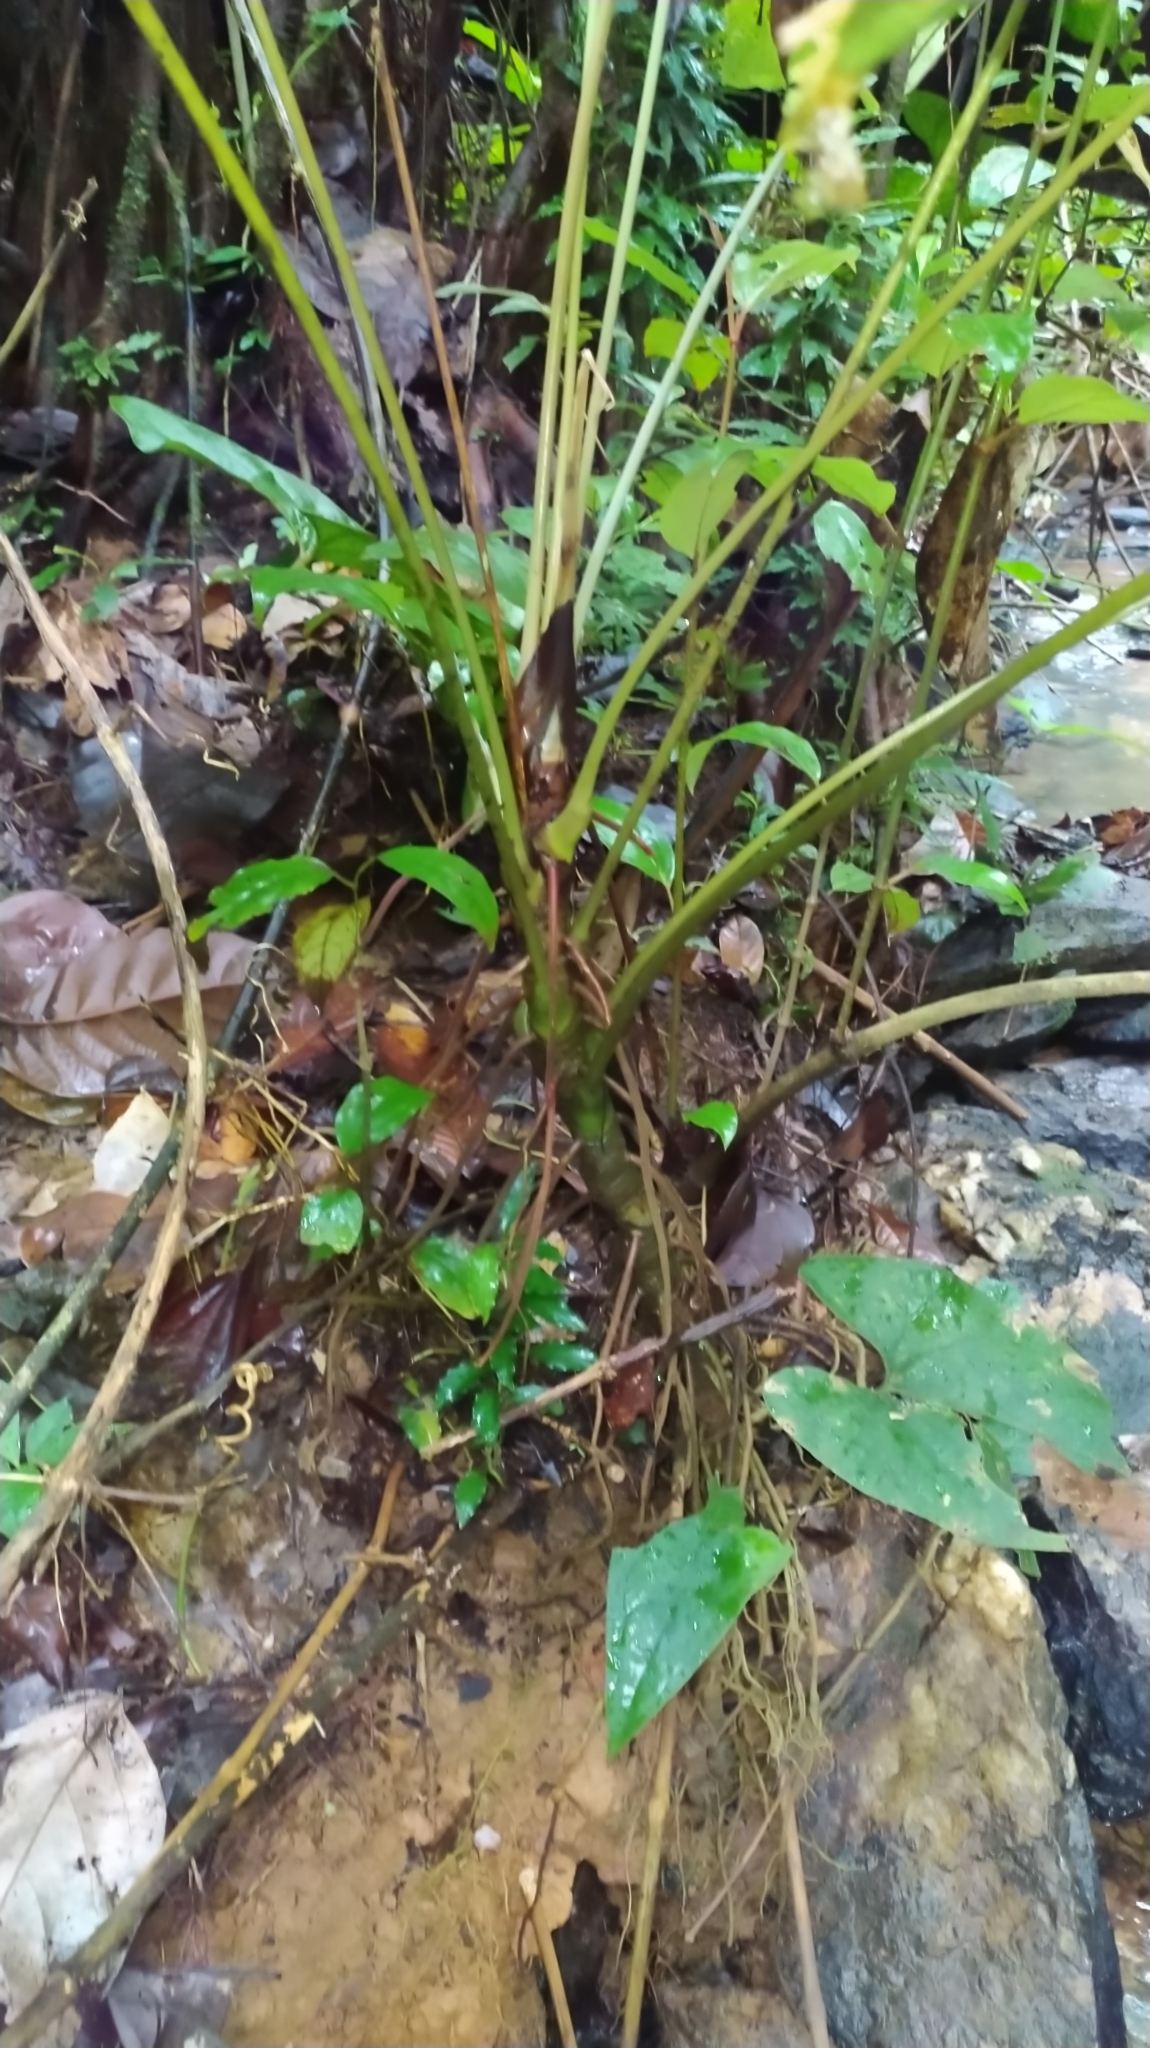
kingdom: Plantae
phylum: Tracheophyta
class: Liliopsida
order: Alismatales
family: Araceae
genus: Anthurium
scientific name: Anthurium sagittatum
